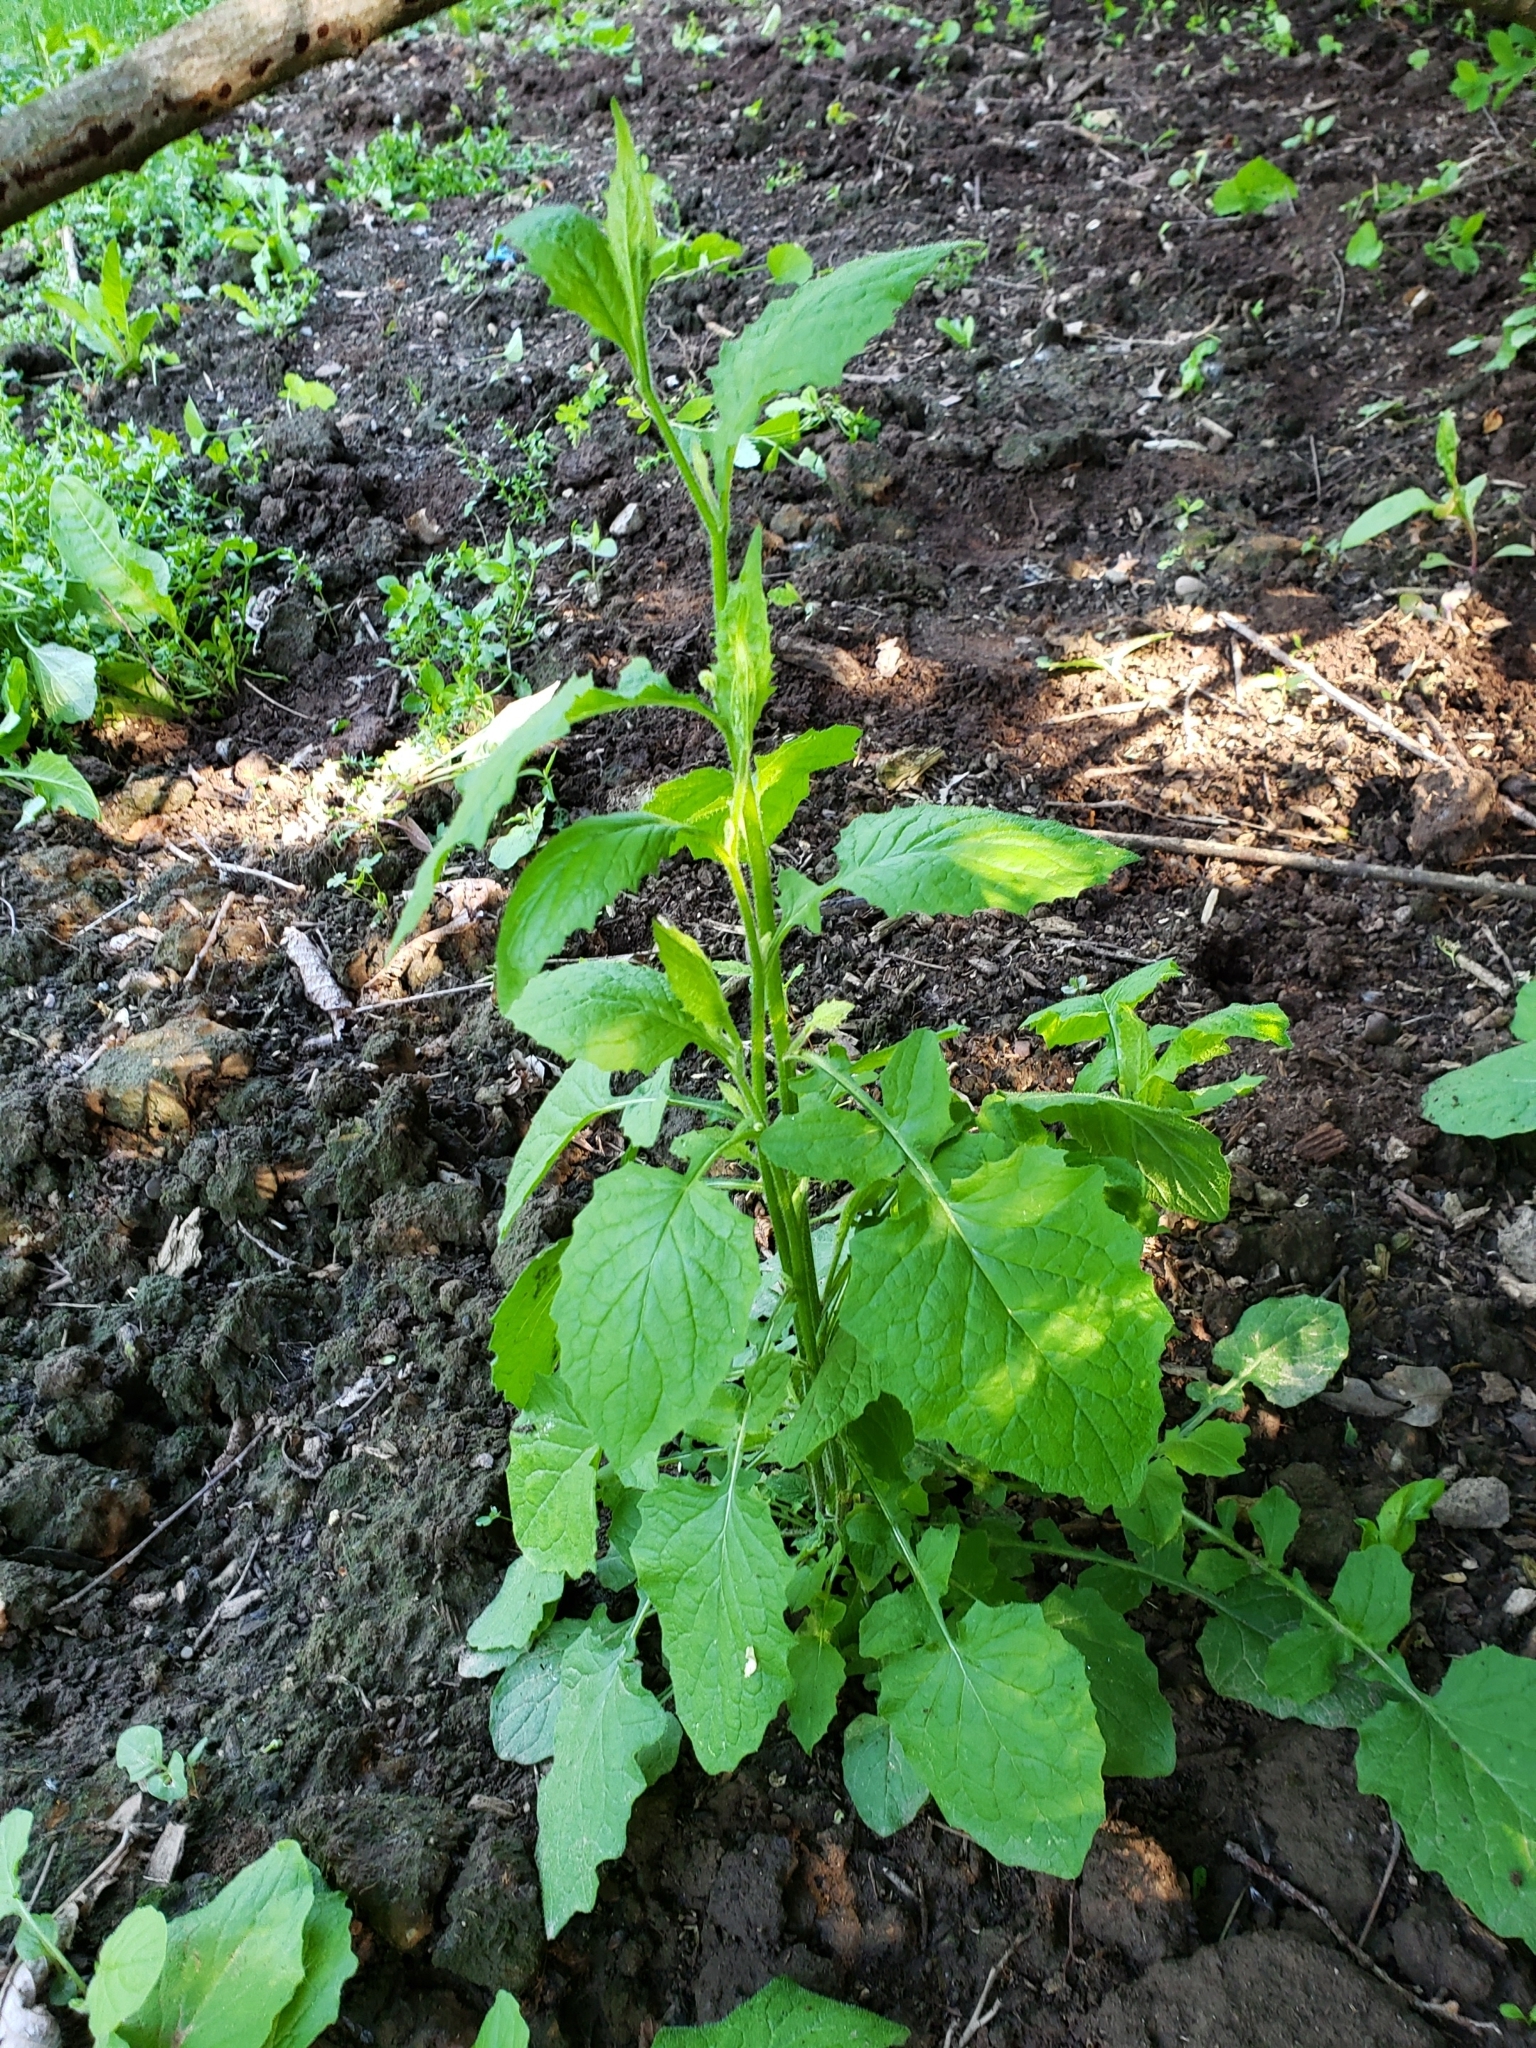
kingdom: Plantae
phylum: Tracheophyta
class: Magnoliopsida
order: Asterales
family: Asteraceae
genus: Lapsana
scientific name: Lapsana communis
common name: Nipplewort
